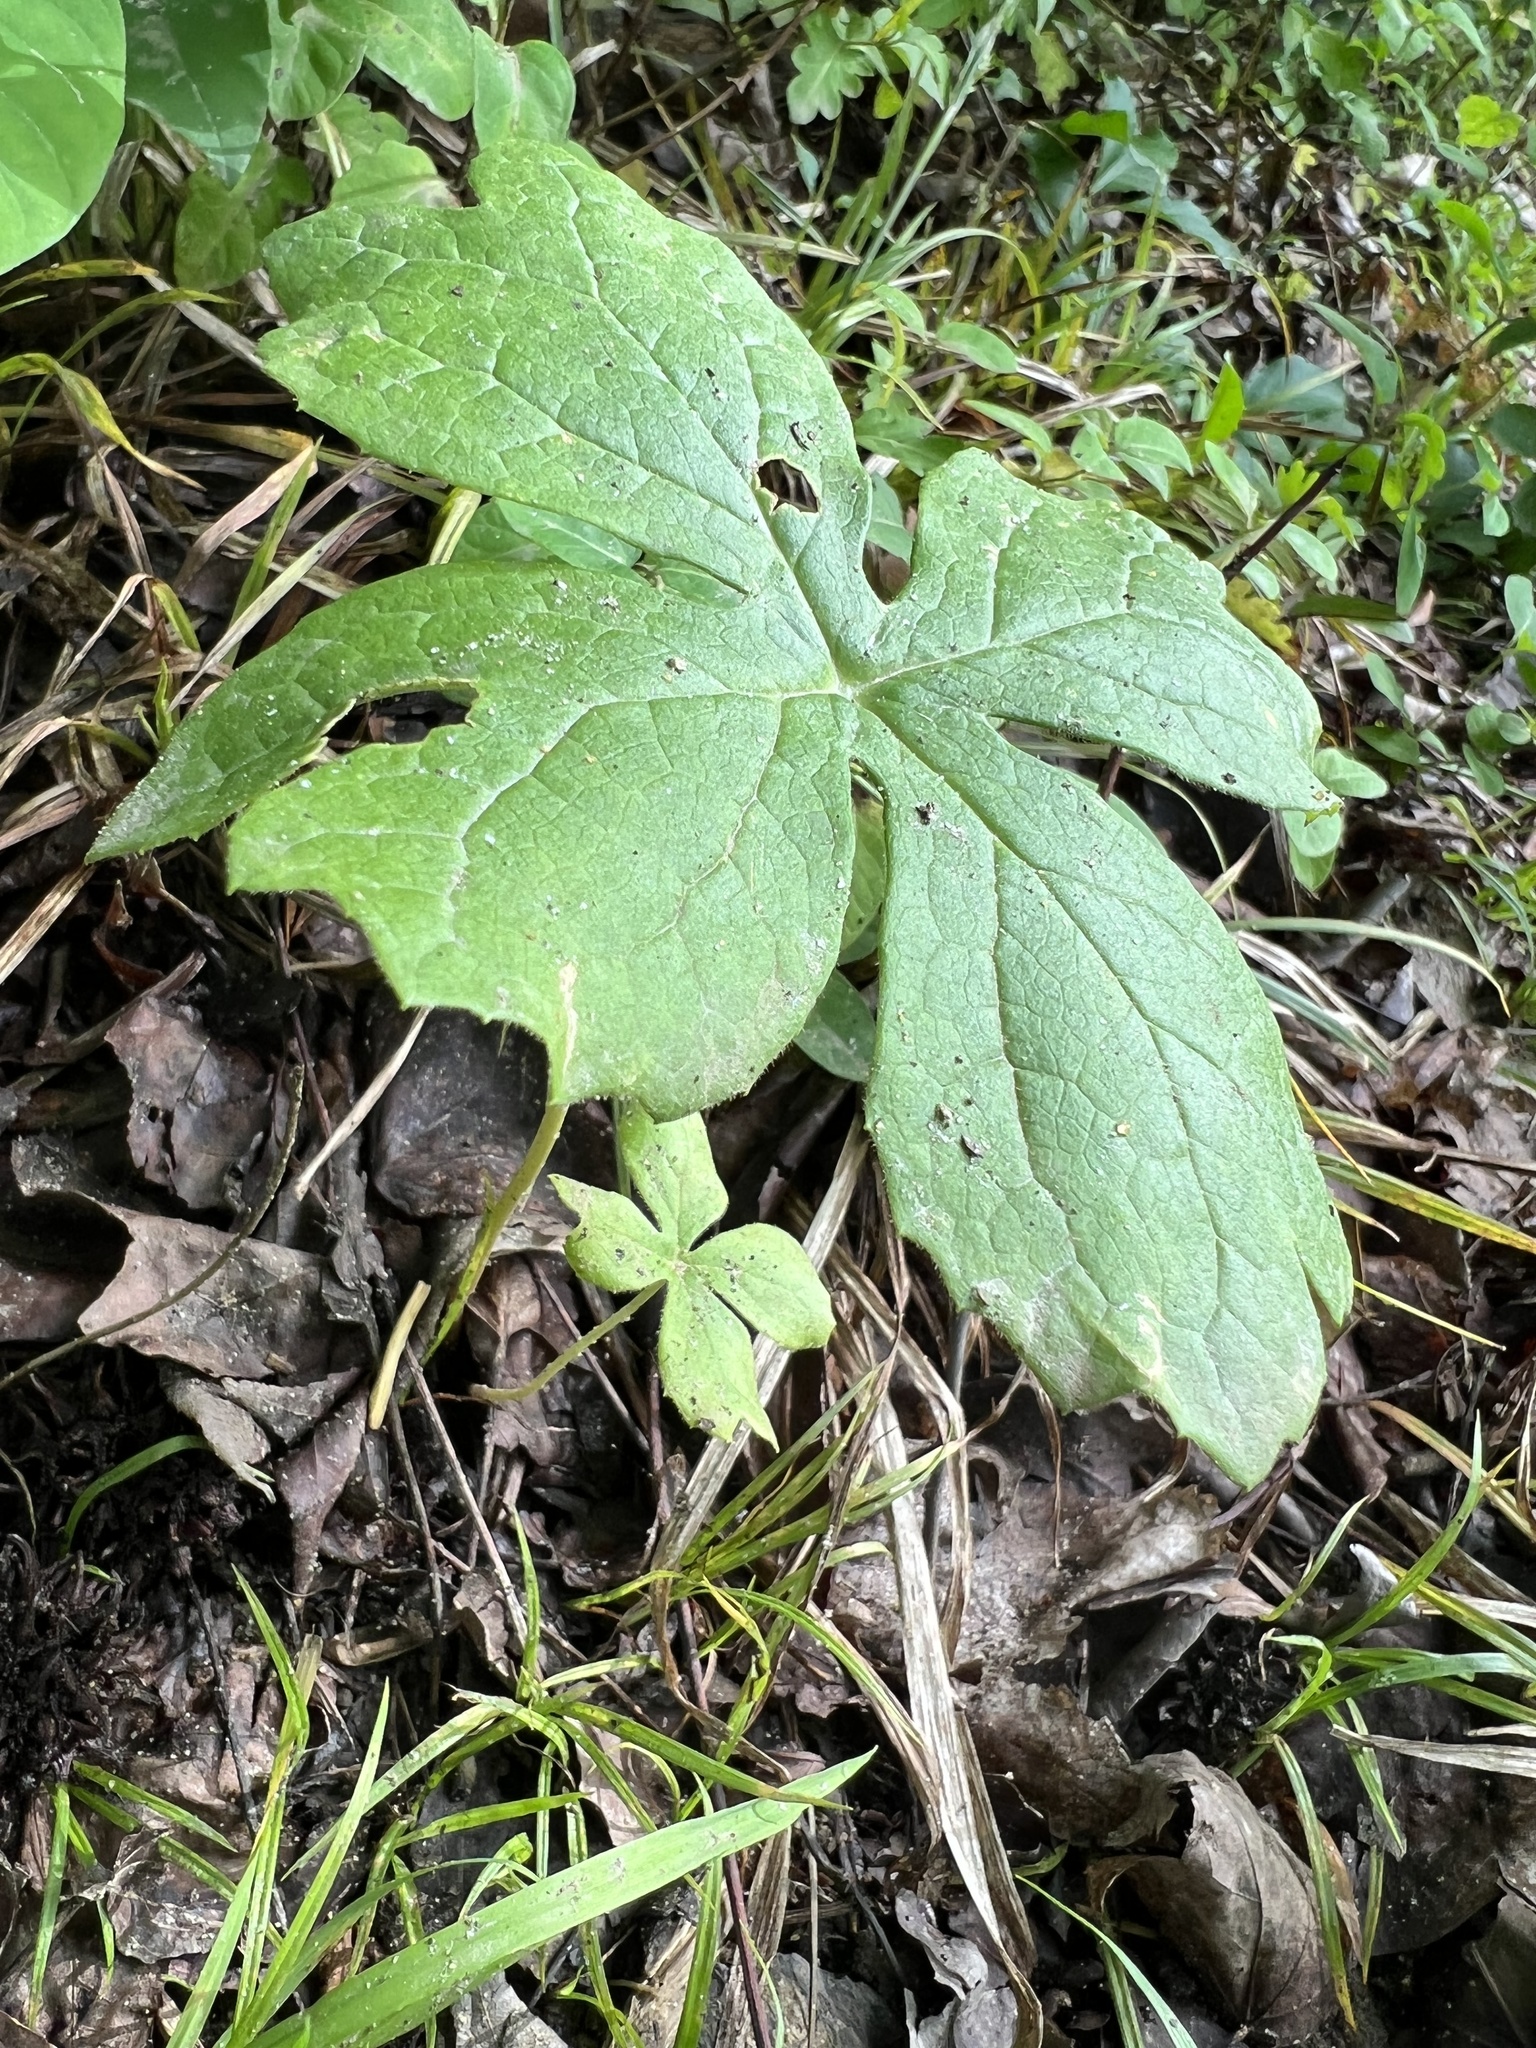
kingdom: Plantae
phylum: Tracheophyta
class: Magnoliopsida
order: Ranunculales
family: Berberidaceae
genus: Podophyllum
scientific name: Podophyllum peltatum
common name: Wild mandrake
